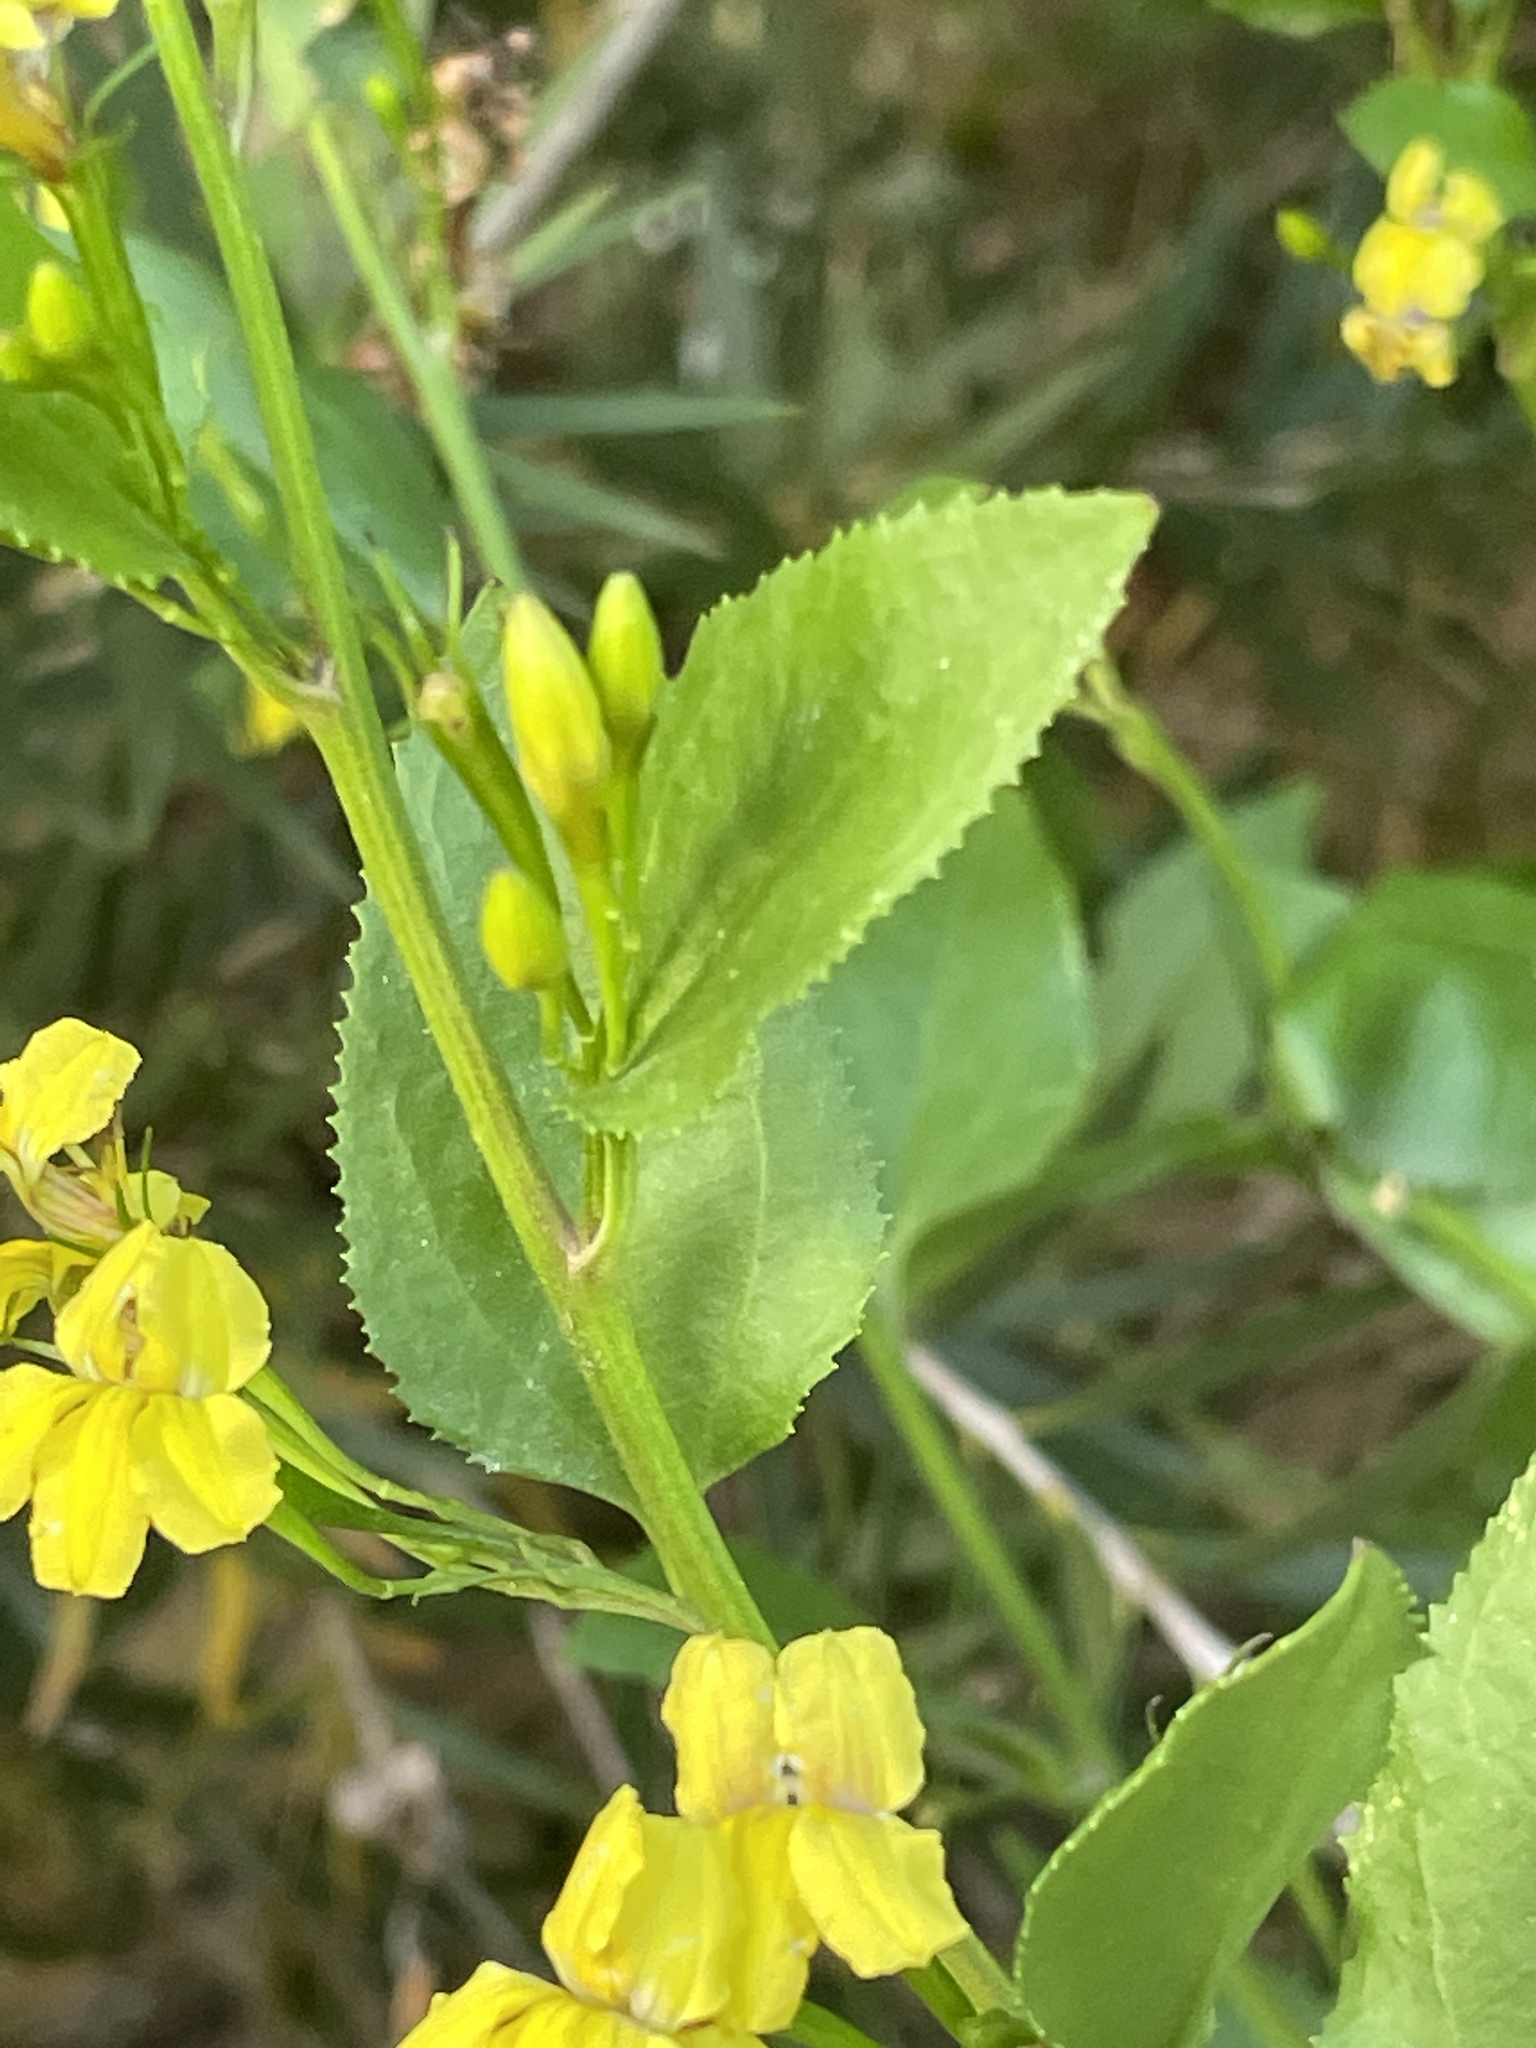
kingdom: Plantae
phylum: Tracheophyta
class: Magnoliopsida
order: Asterales
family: Goodeniaceae
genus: Goodenia
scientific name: Goodenia ovata
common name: Hop goodenia
